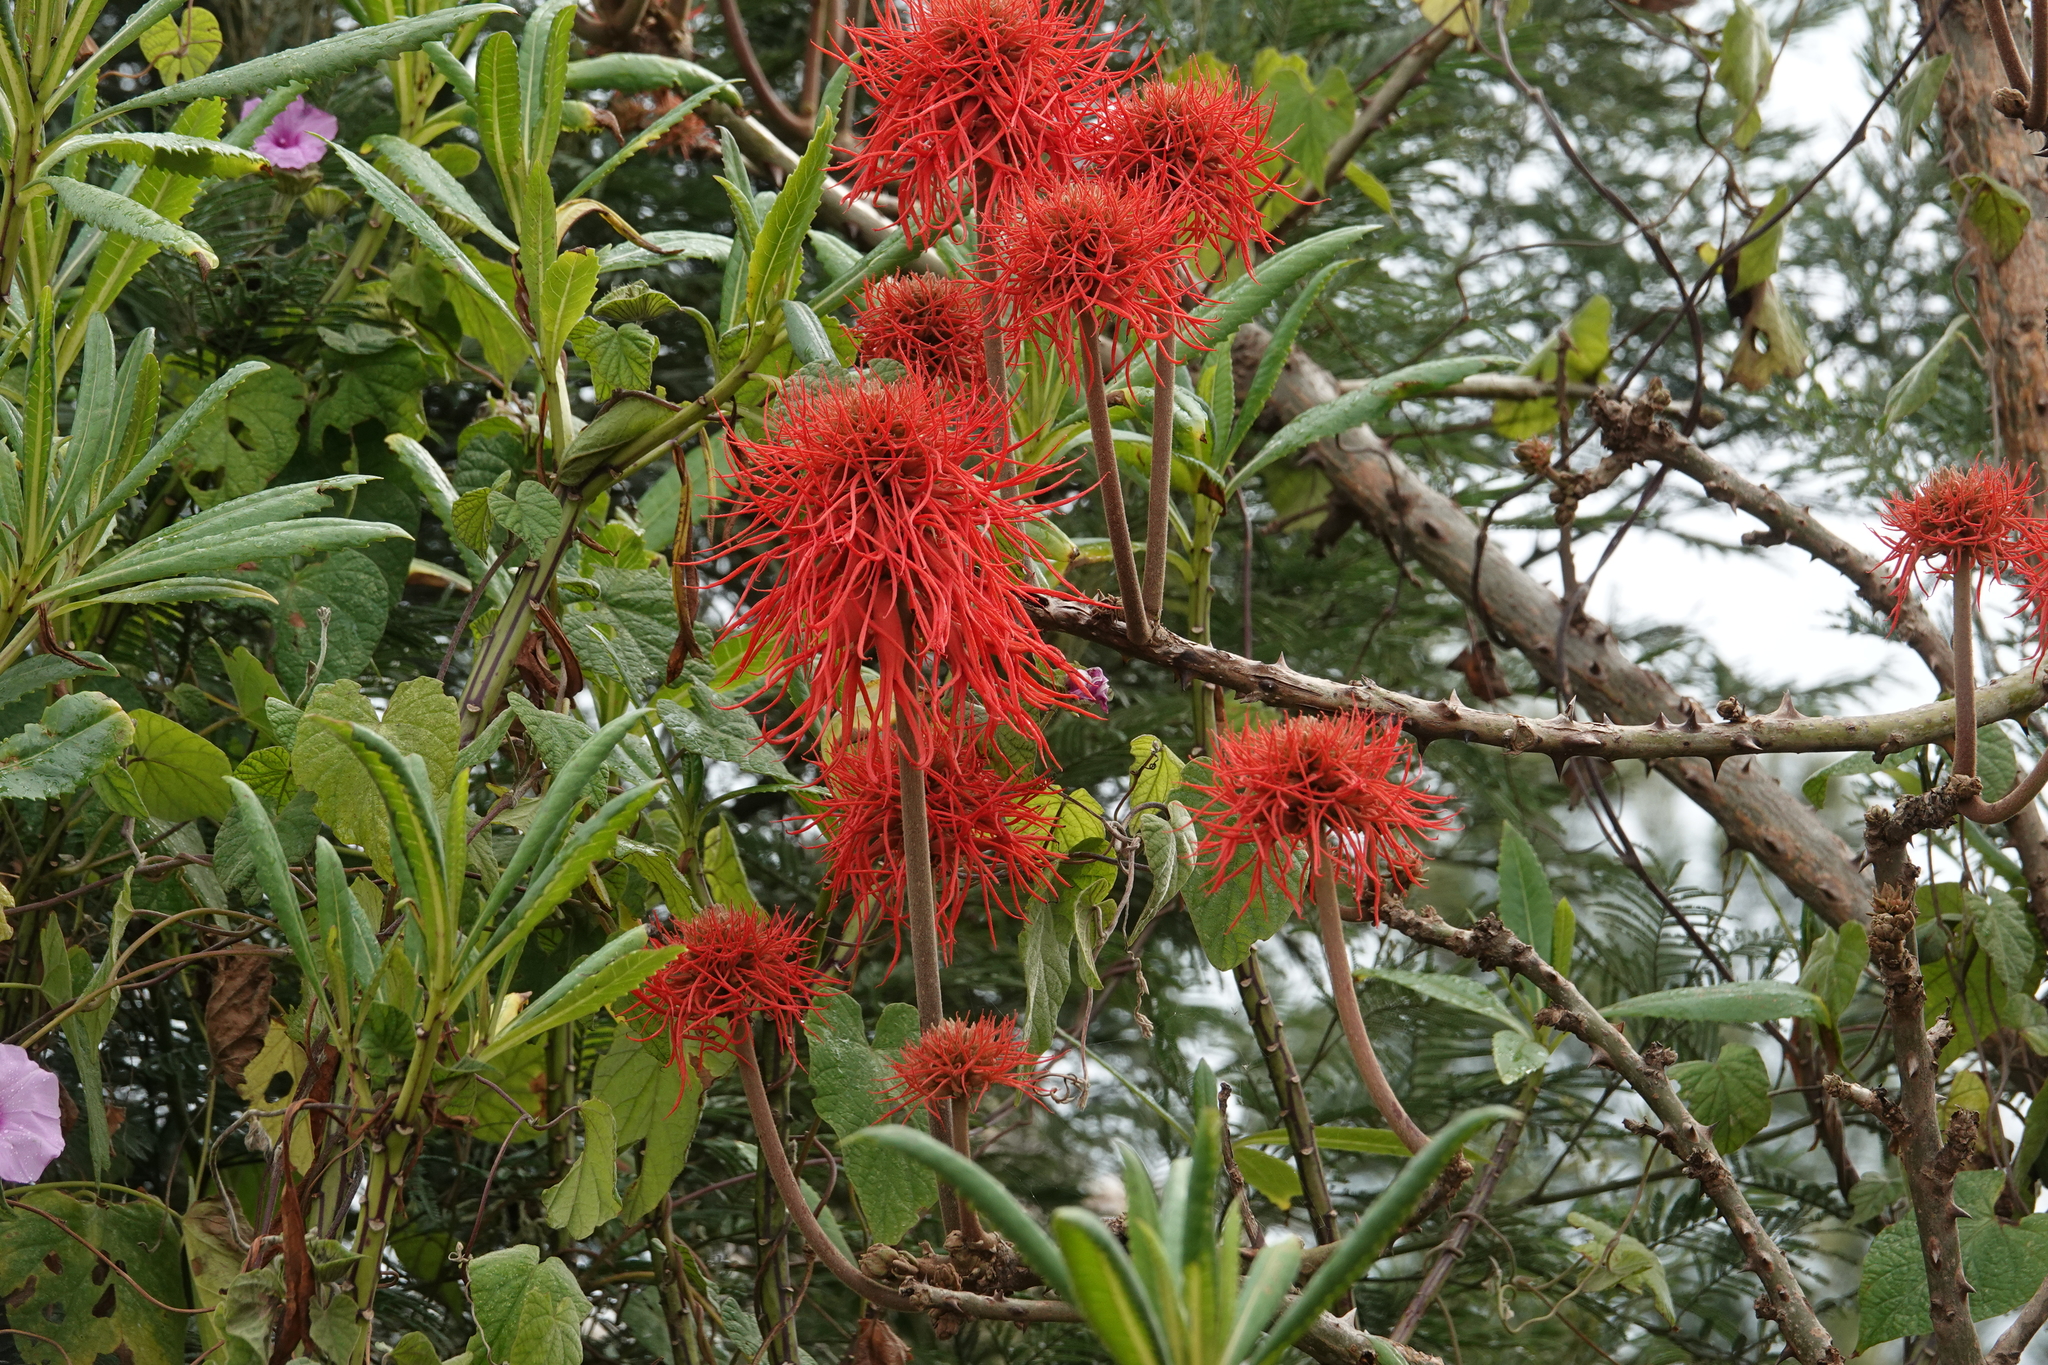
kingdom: Plantae
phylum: Tracheophyta
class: Magnoliopsida
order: Fabales
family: Fabaceae
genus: Erythrina
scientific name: Erythrina abyssinica
